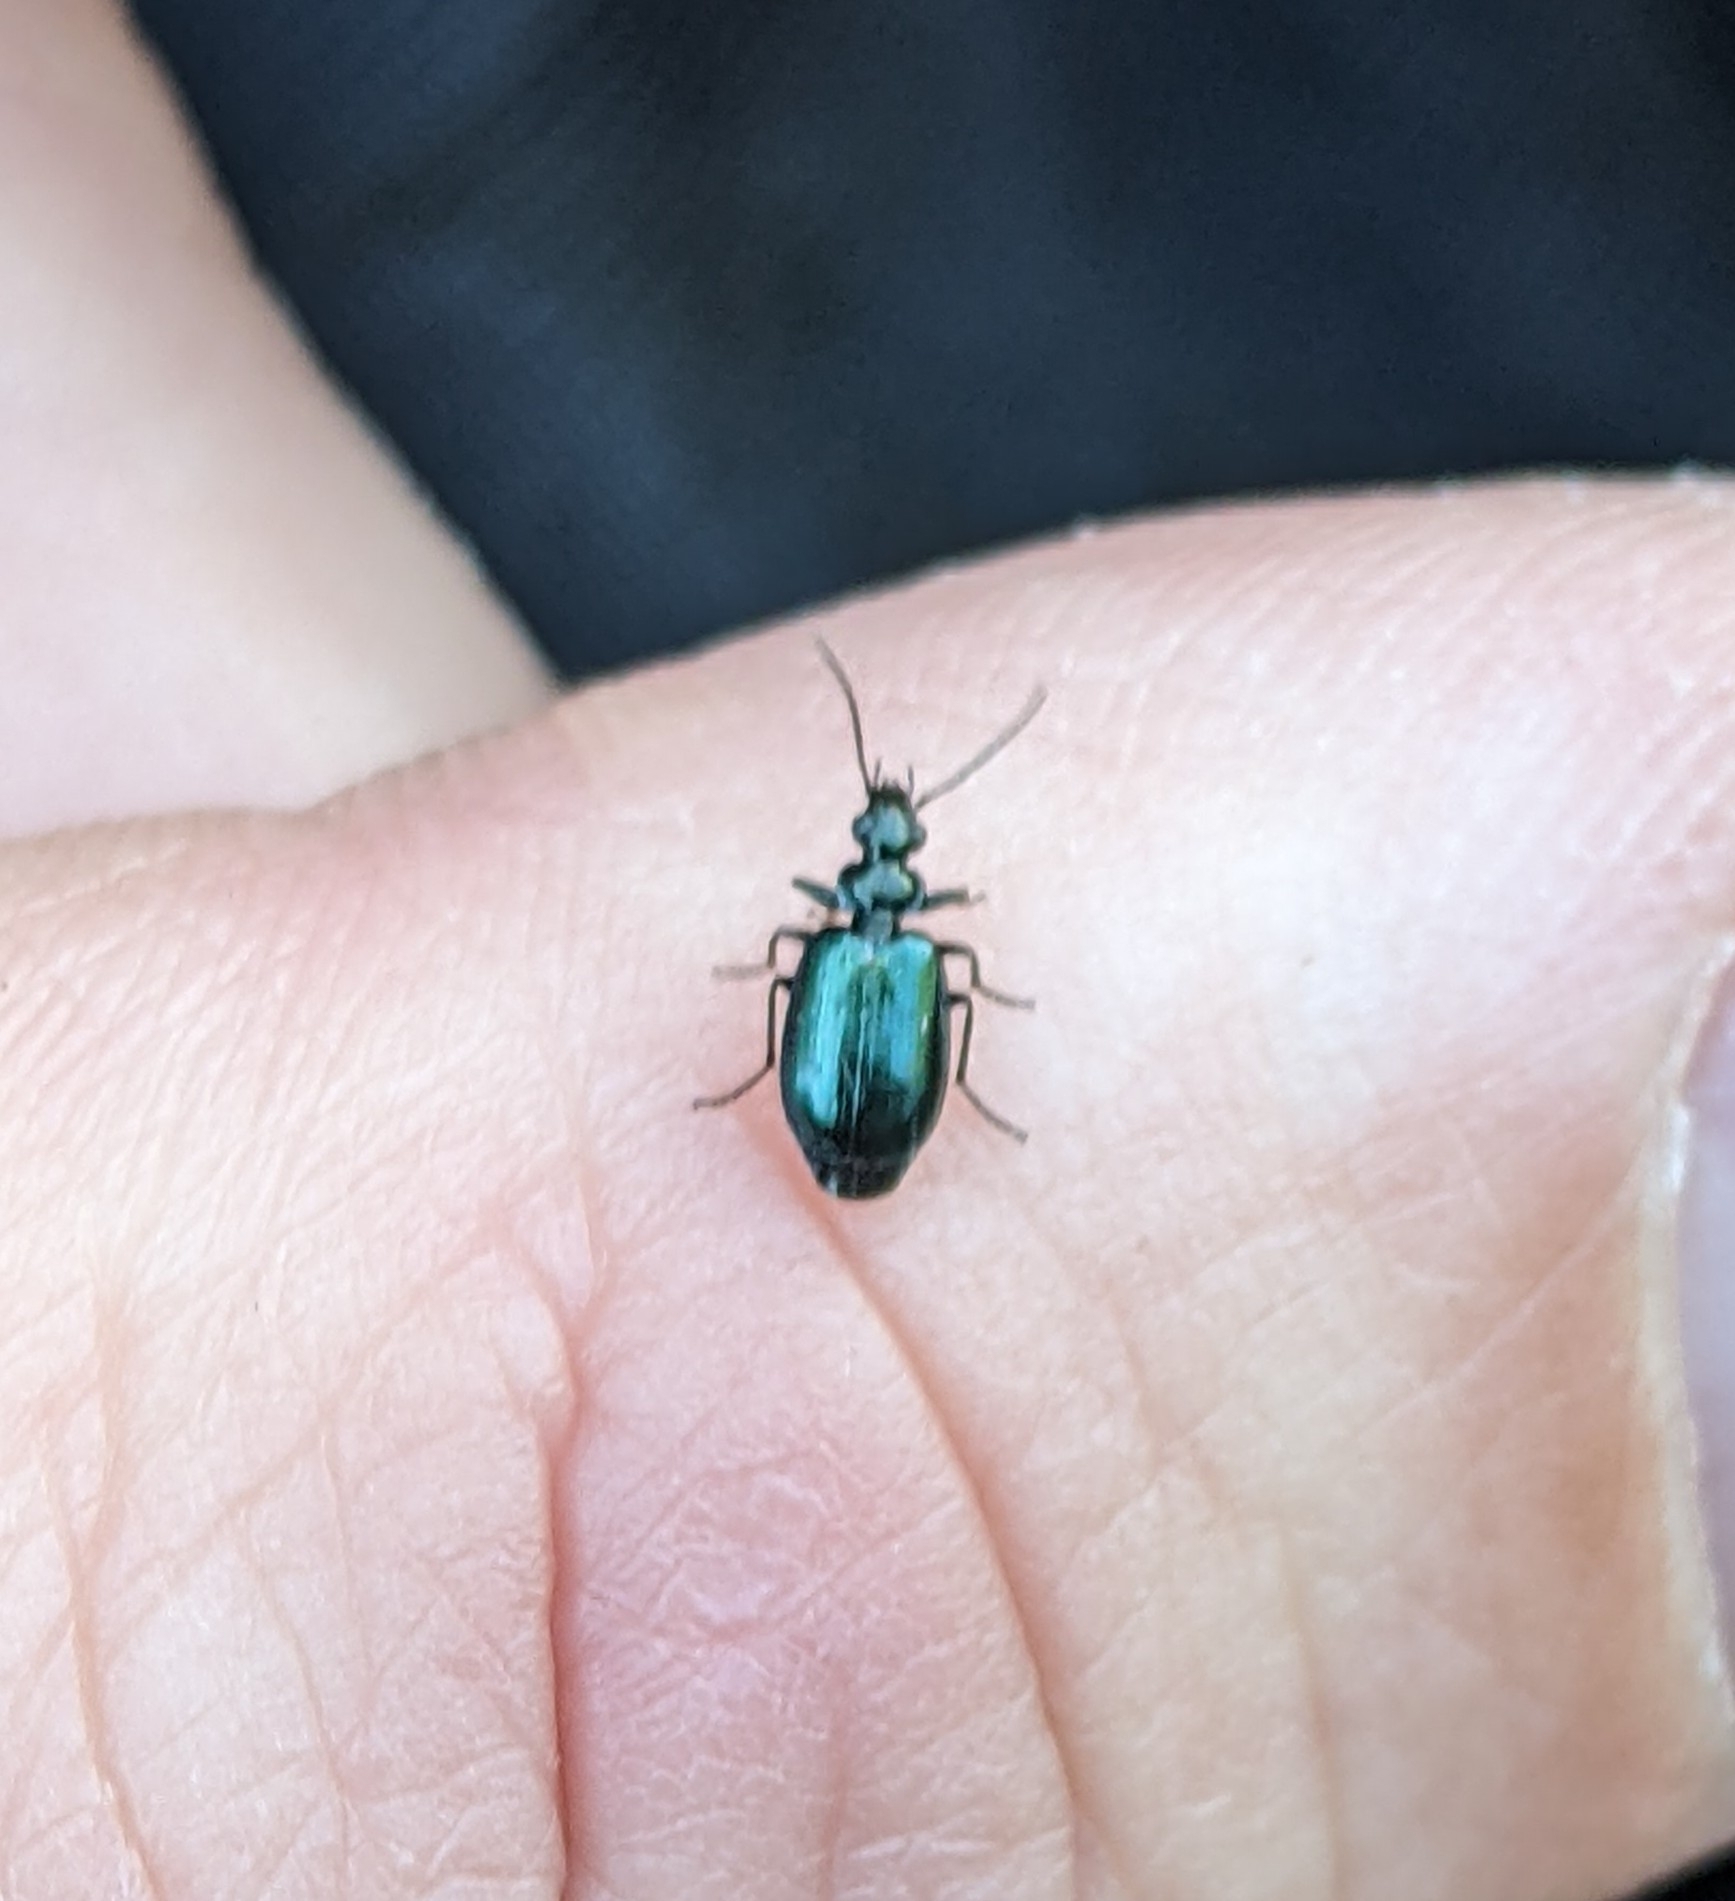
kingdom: Animalia
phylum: Arthropoda
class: Insecta
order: Coleoptera
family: Carabidae
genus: Lebia
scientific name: Lebia viridis
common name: Flower lebia beetle
